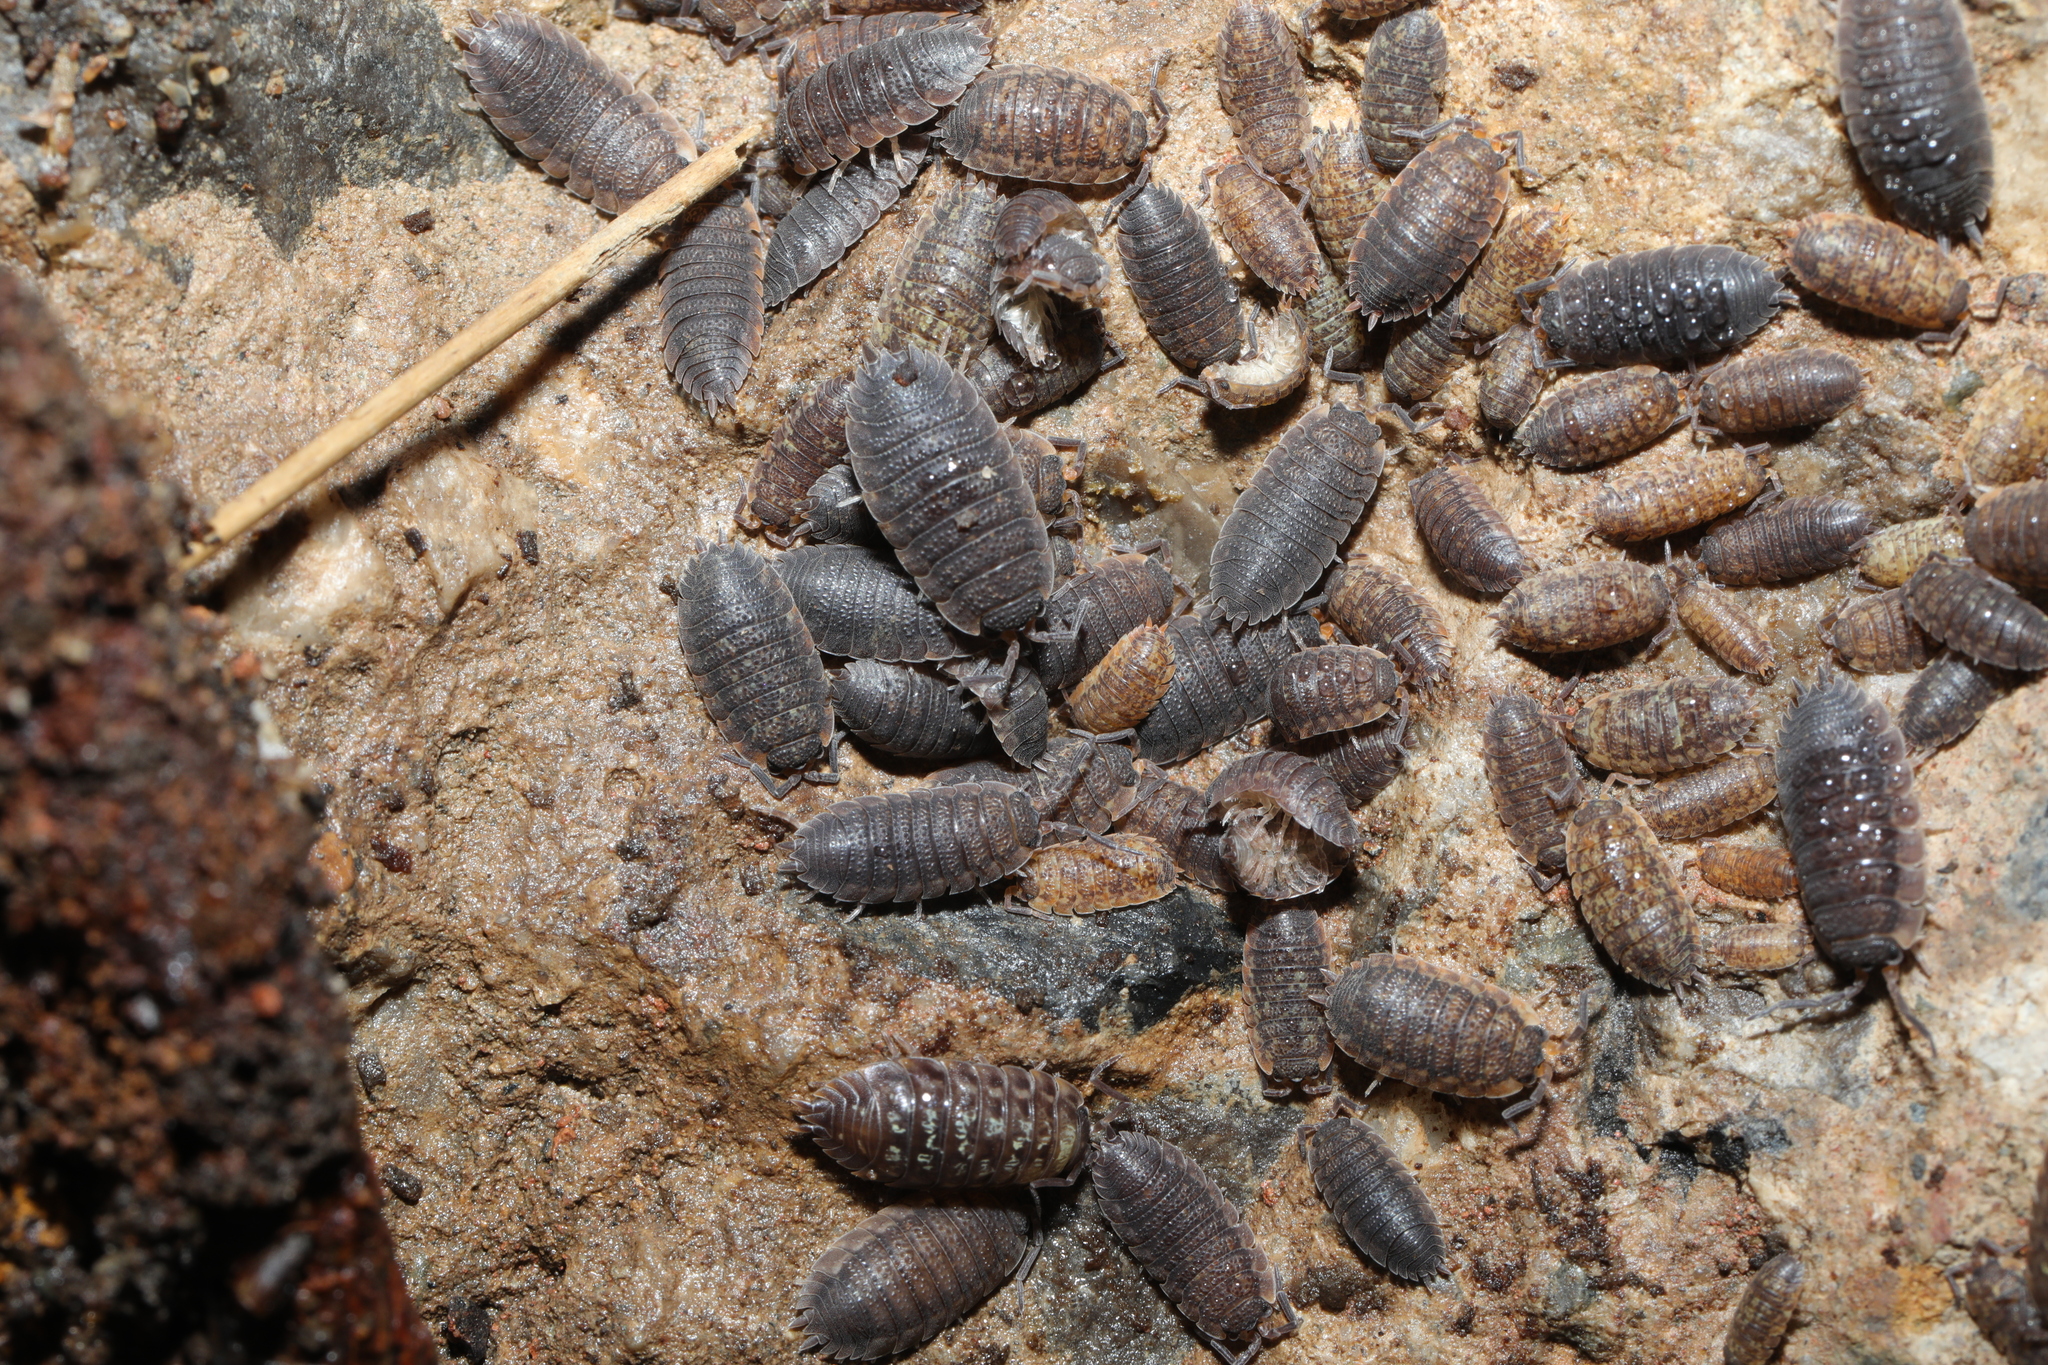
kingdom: Animalia
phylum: Arthropoda
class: Malacostraca
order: Isopoda
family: Porcellionidae
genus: Porcellio
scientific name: Porcellio scaber
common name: Common rough woodlouse
